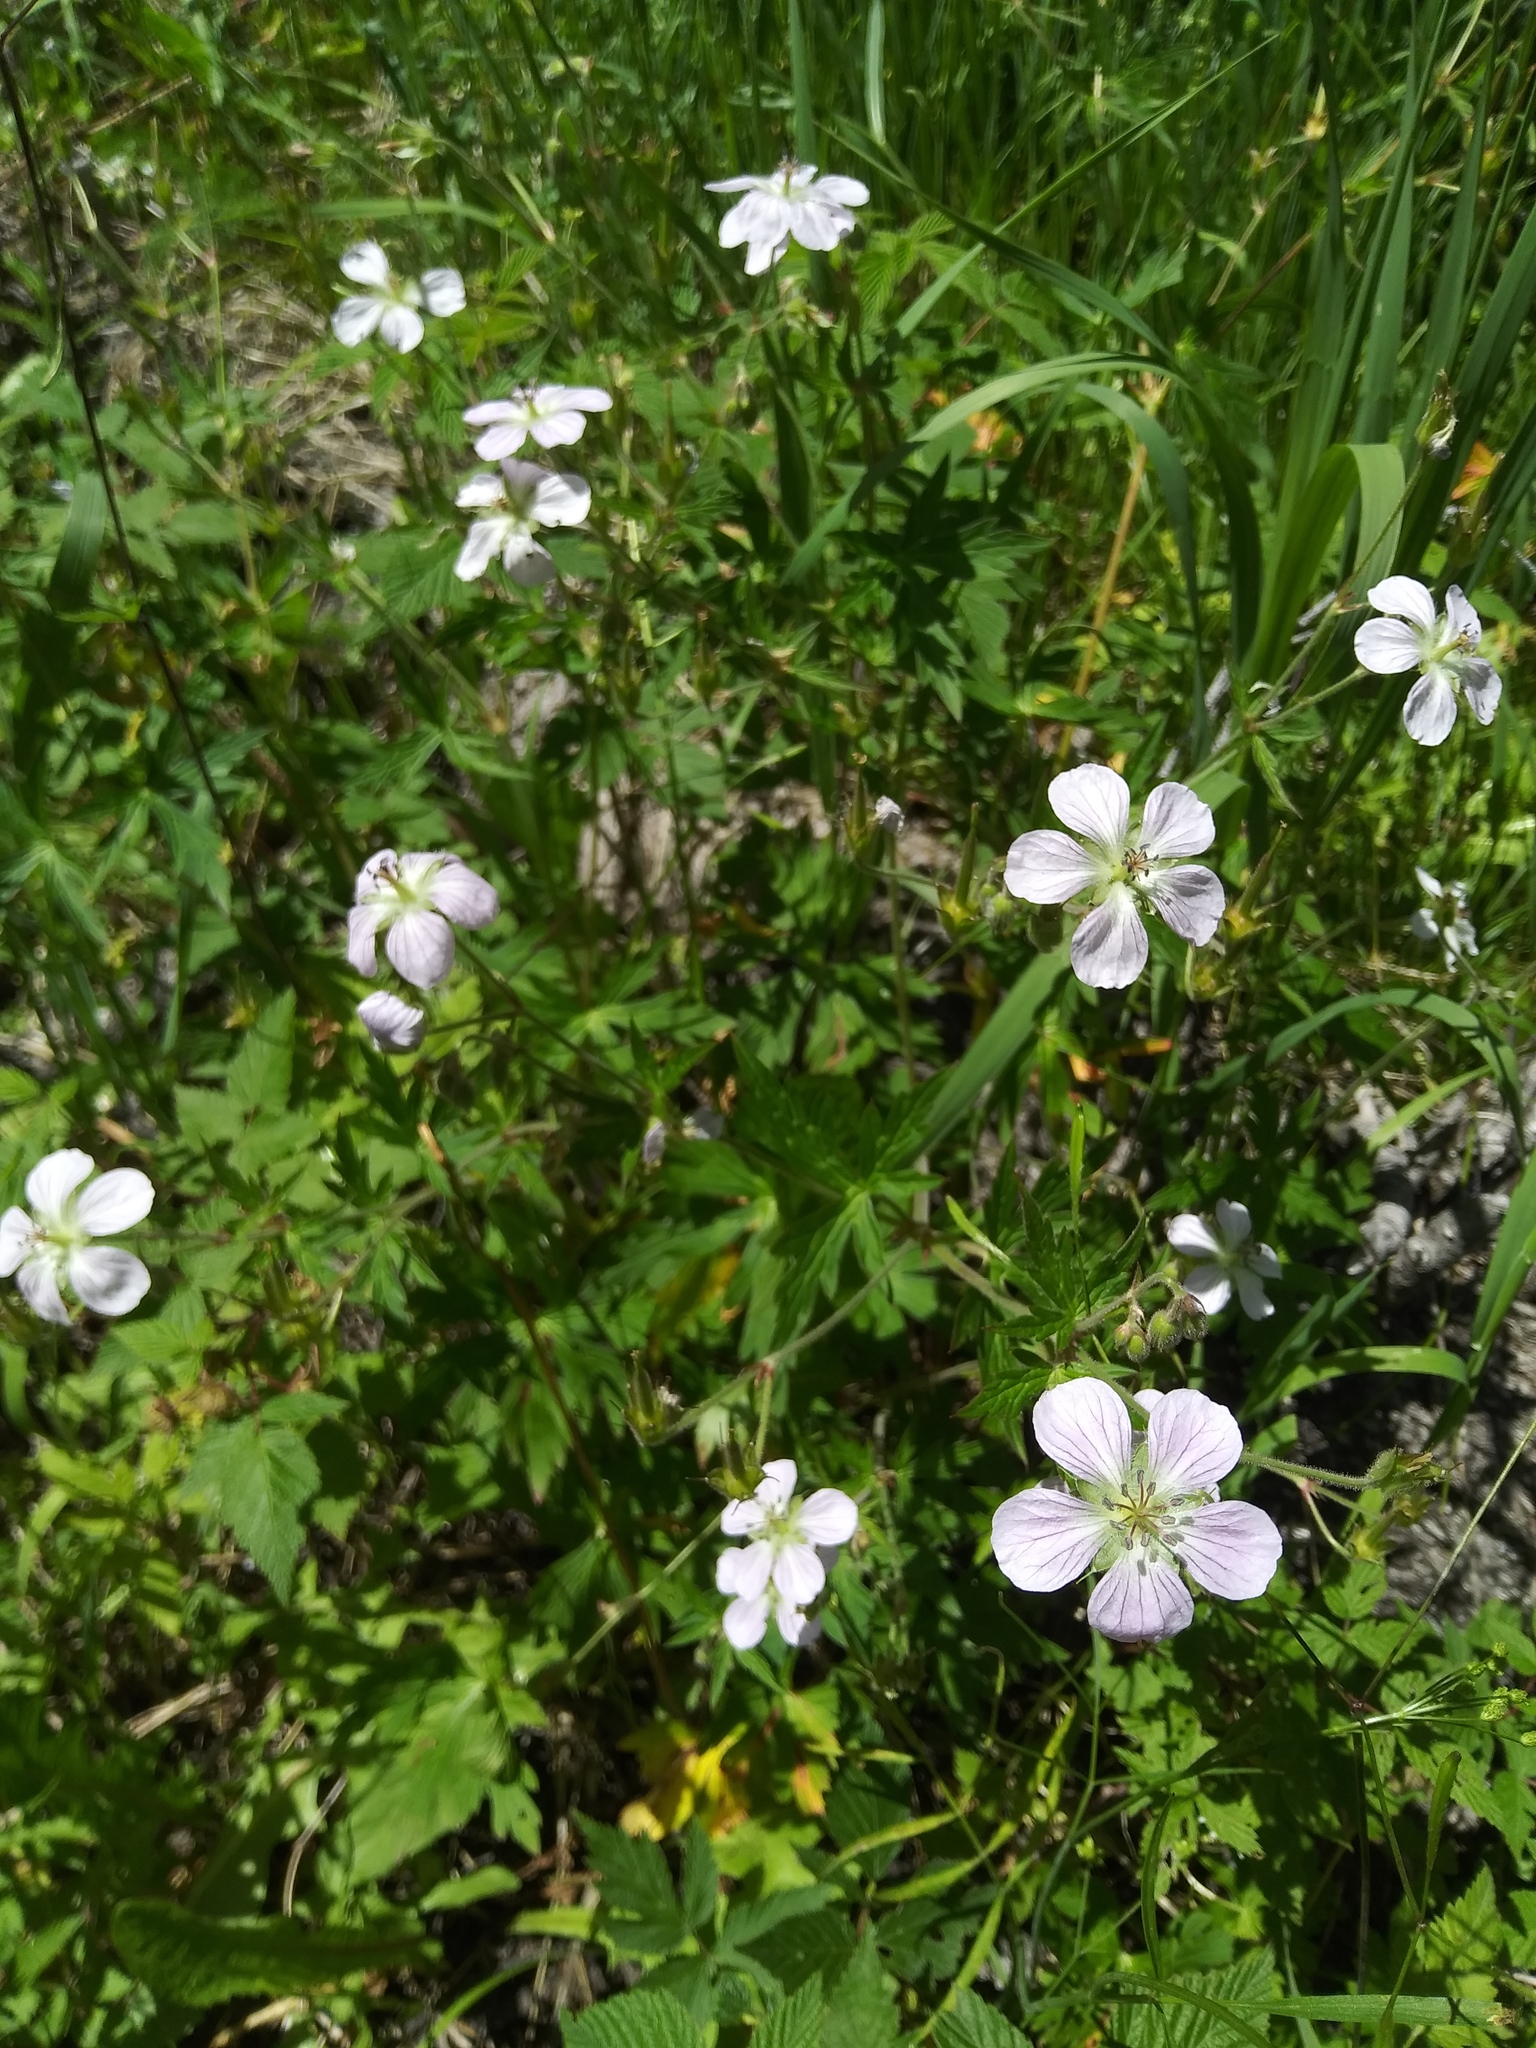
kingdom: Plantae
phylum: Tracheophyta
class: Magnoliopsida
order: Geraniales
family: Geraniaceae
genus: Geranium
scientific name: Geranium richardsonii
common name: Richardson's crane's-bill
